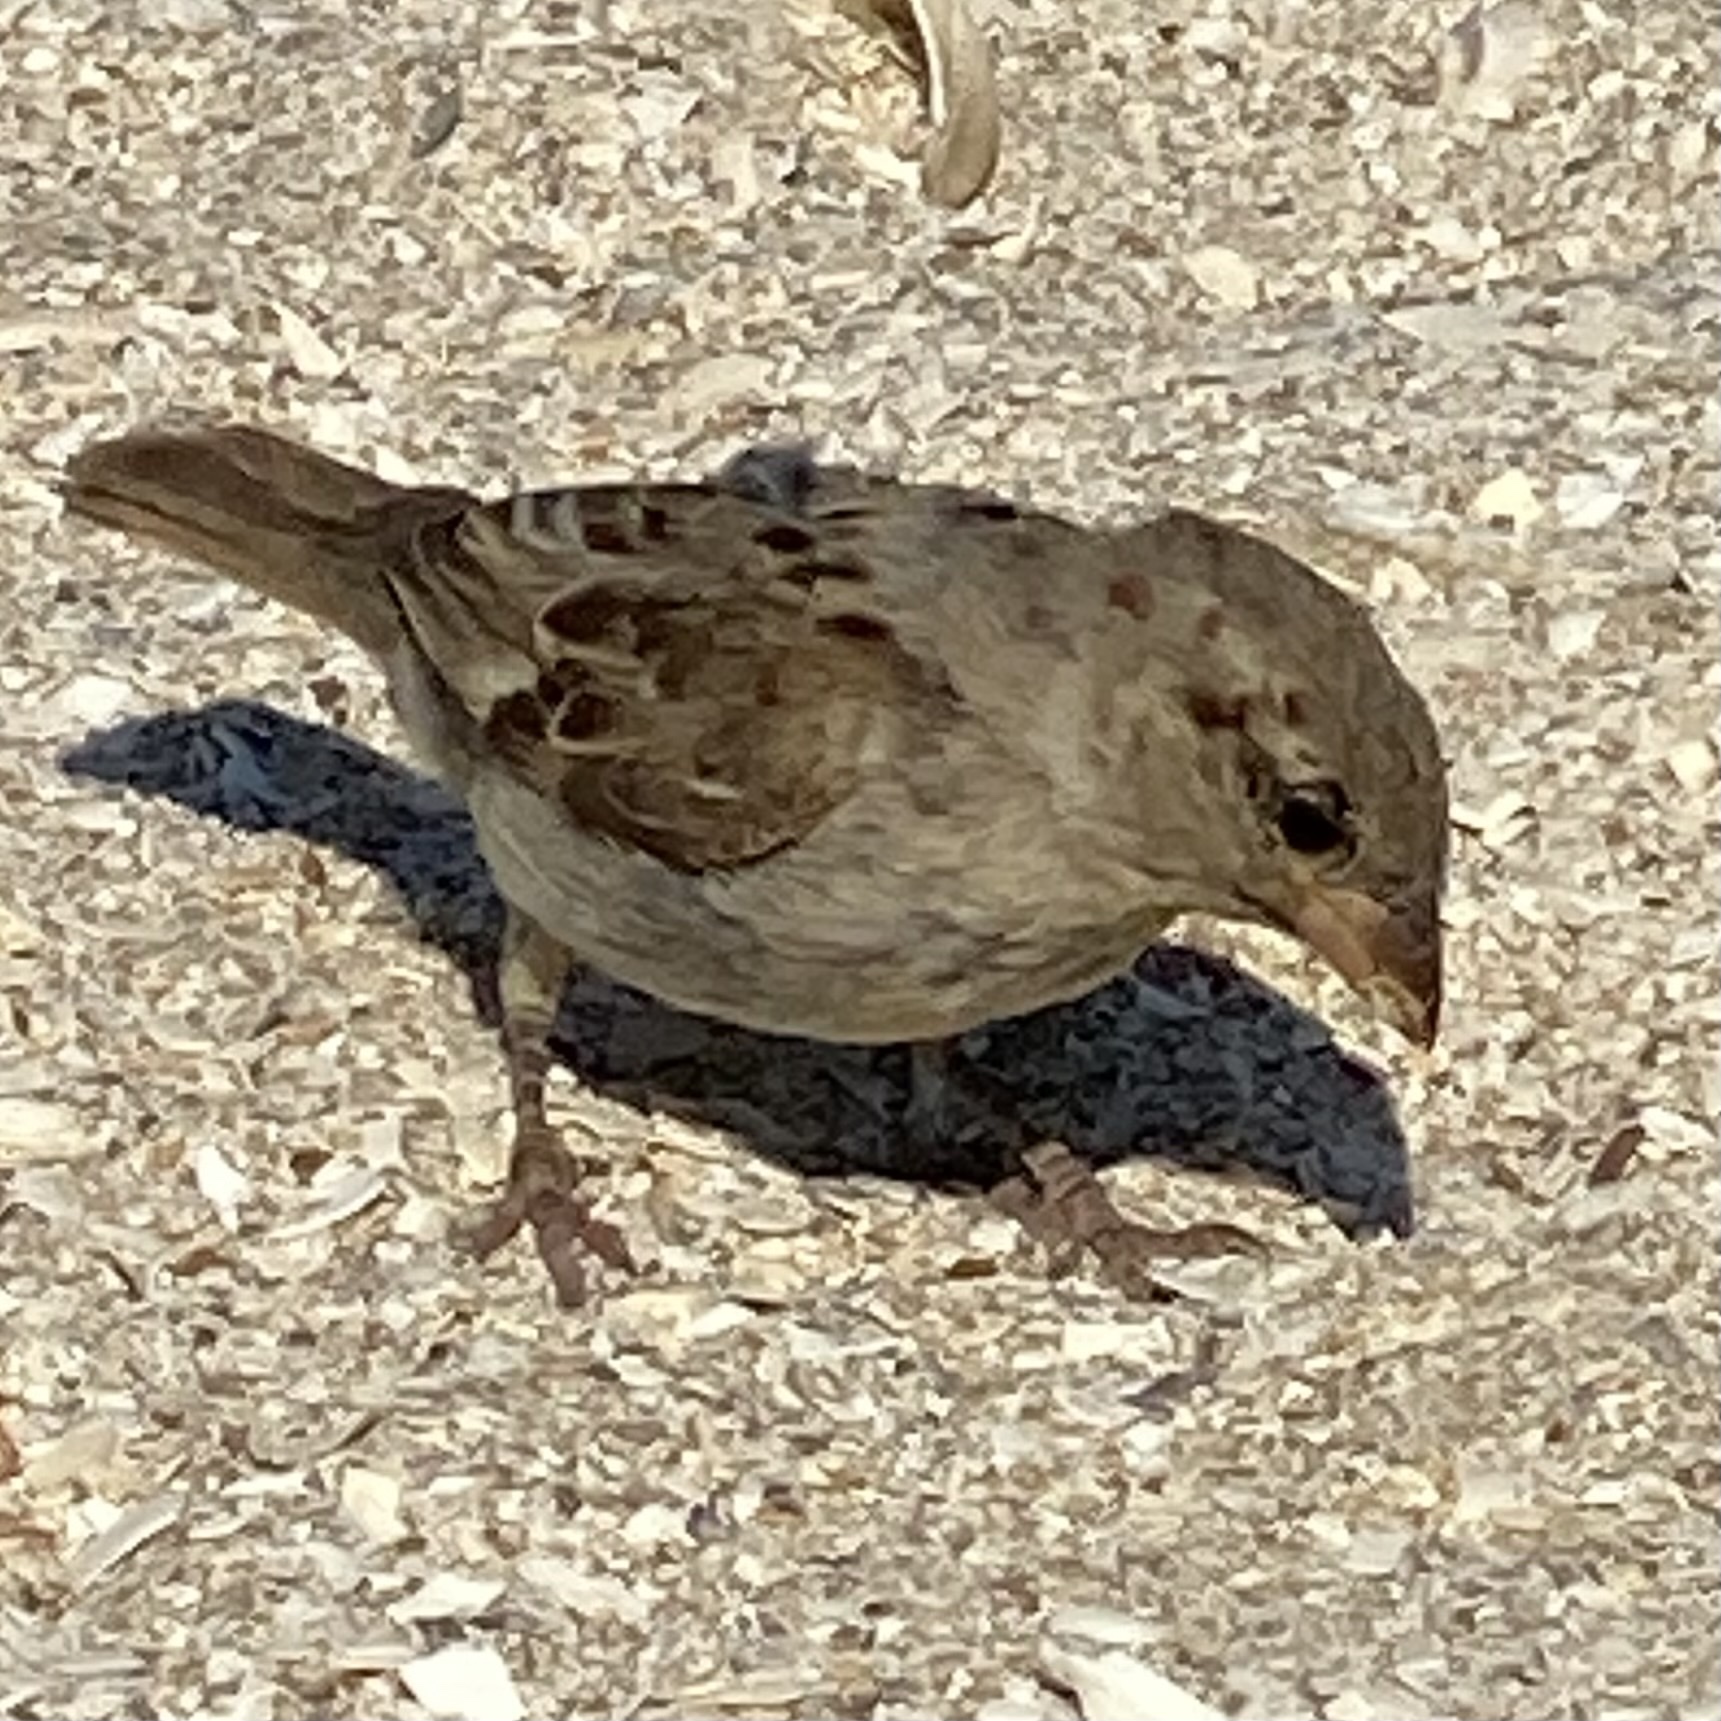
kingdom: Animalia
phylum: Chordata
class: Aves
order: Passeriformes
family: Passeridae
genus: Passer
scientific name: Passer domesticus
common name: House sparrow
